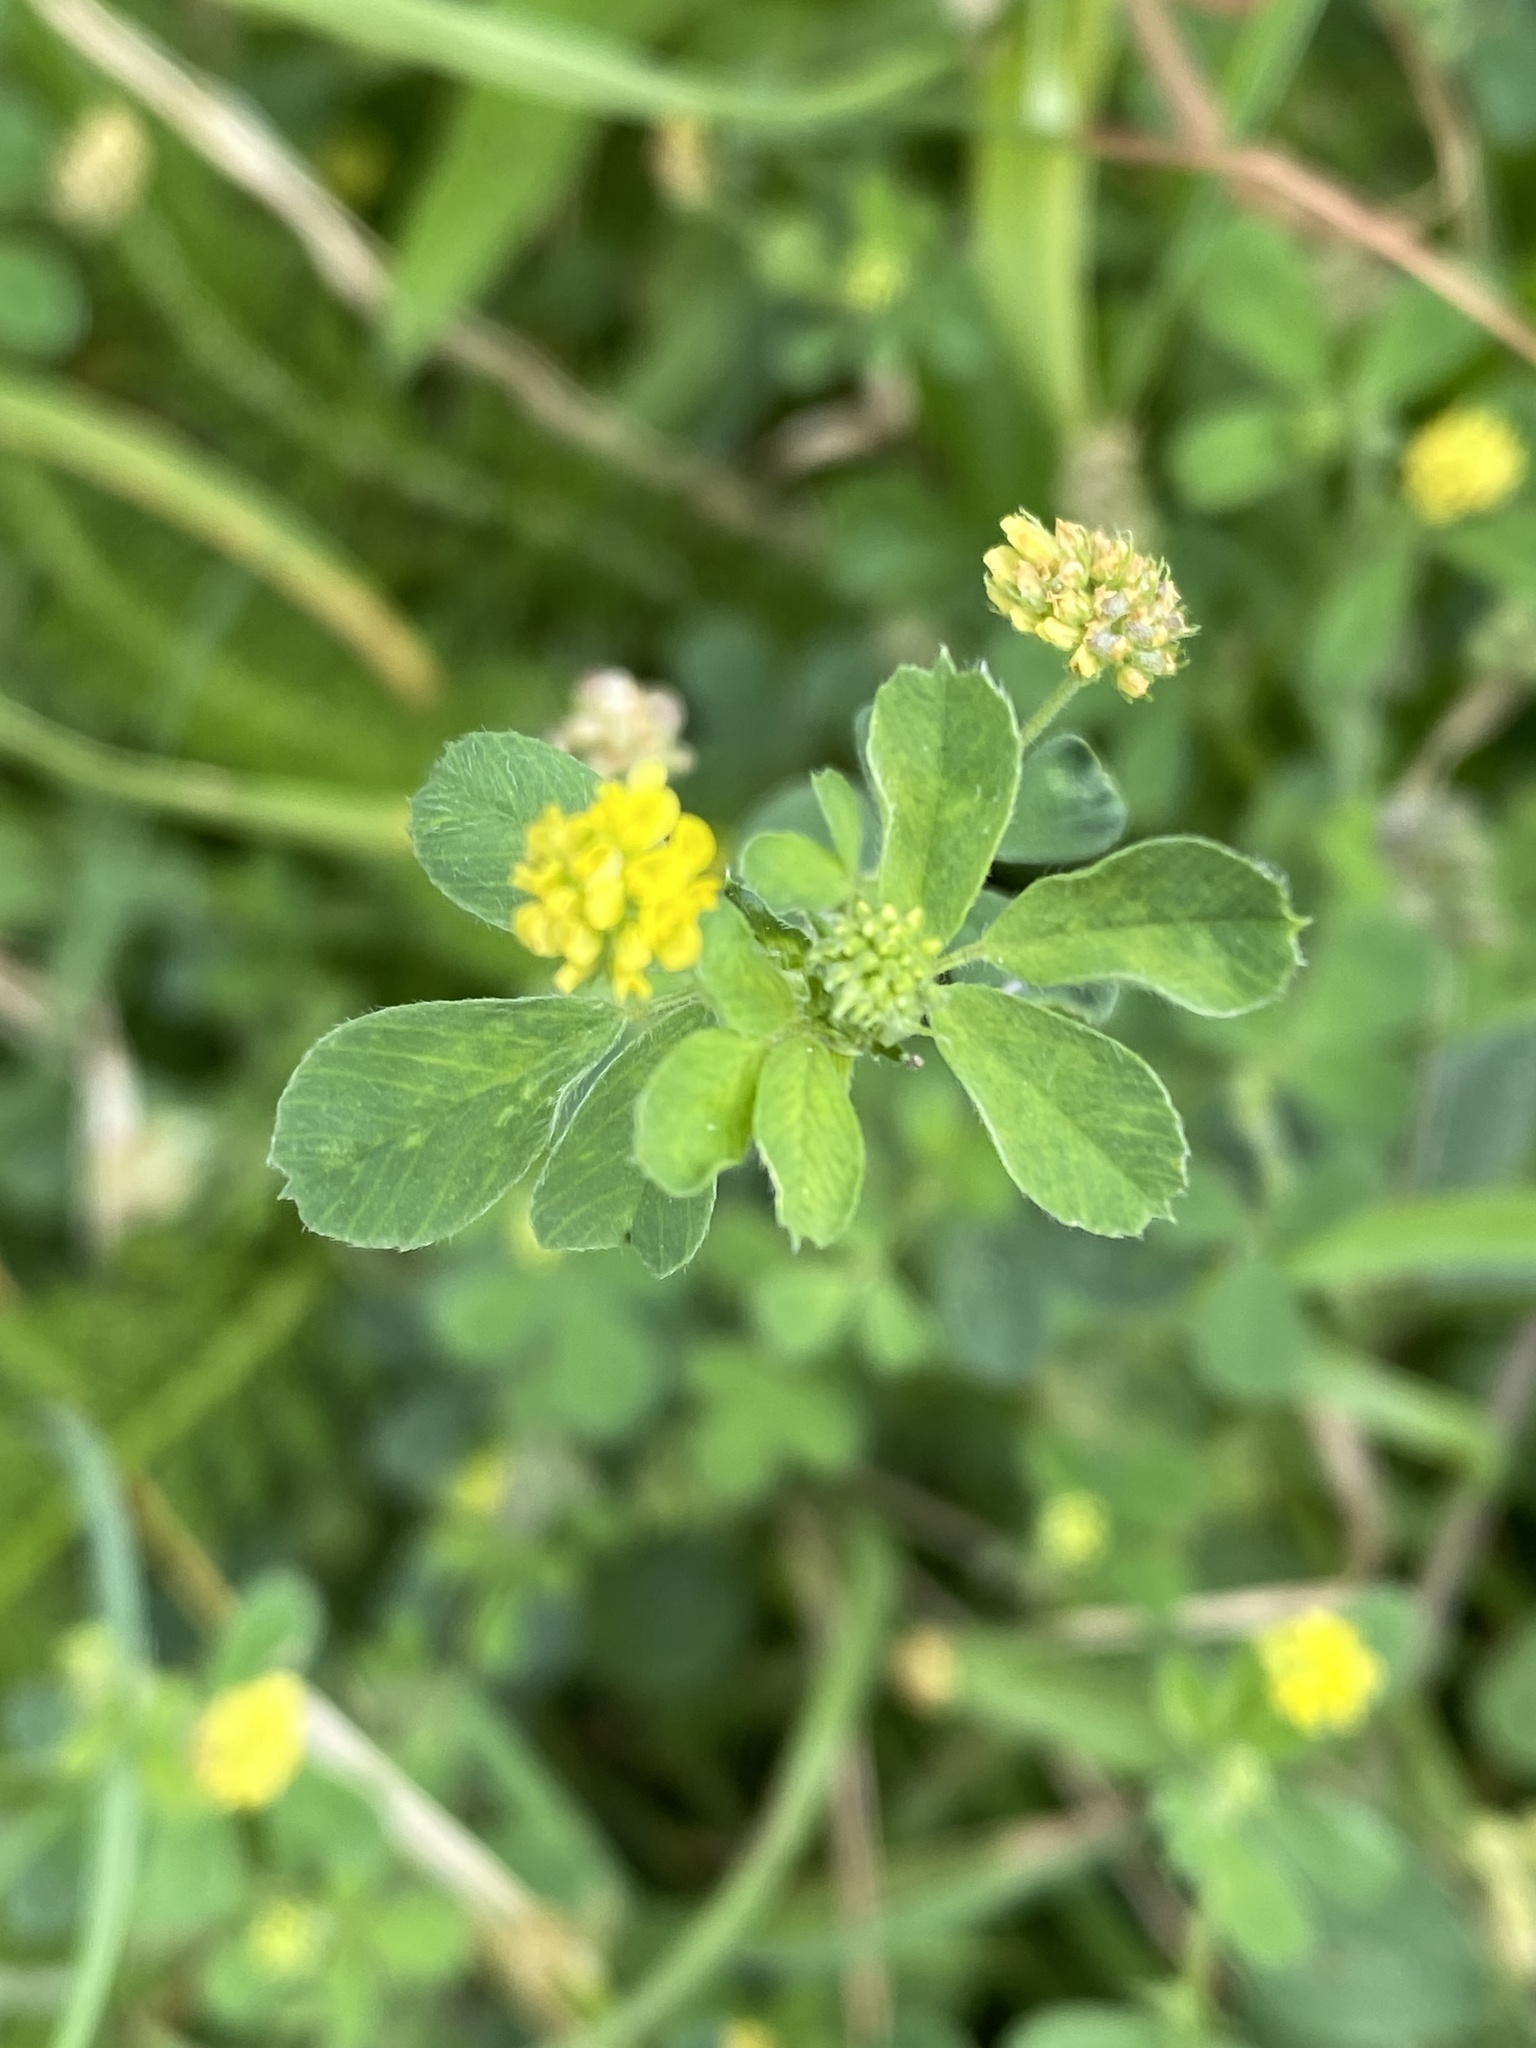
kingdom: Plantae
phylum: Tracheophyta
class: Magnoliopsida
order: Fabales
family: Fabaceae
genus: Medicago
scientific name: Medicago lupulina
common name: Black medick
